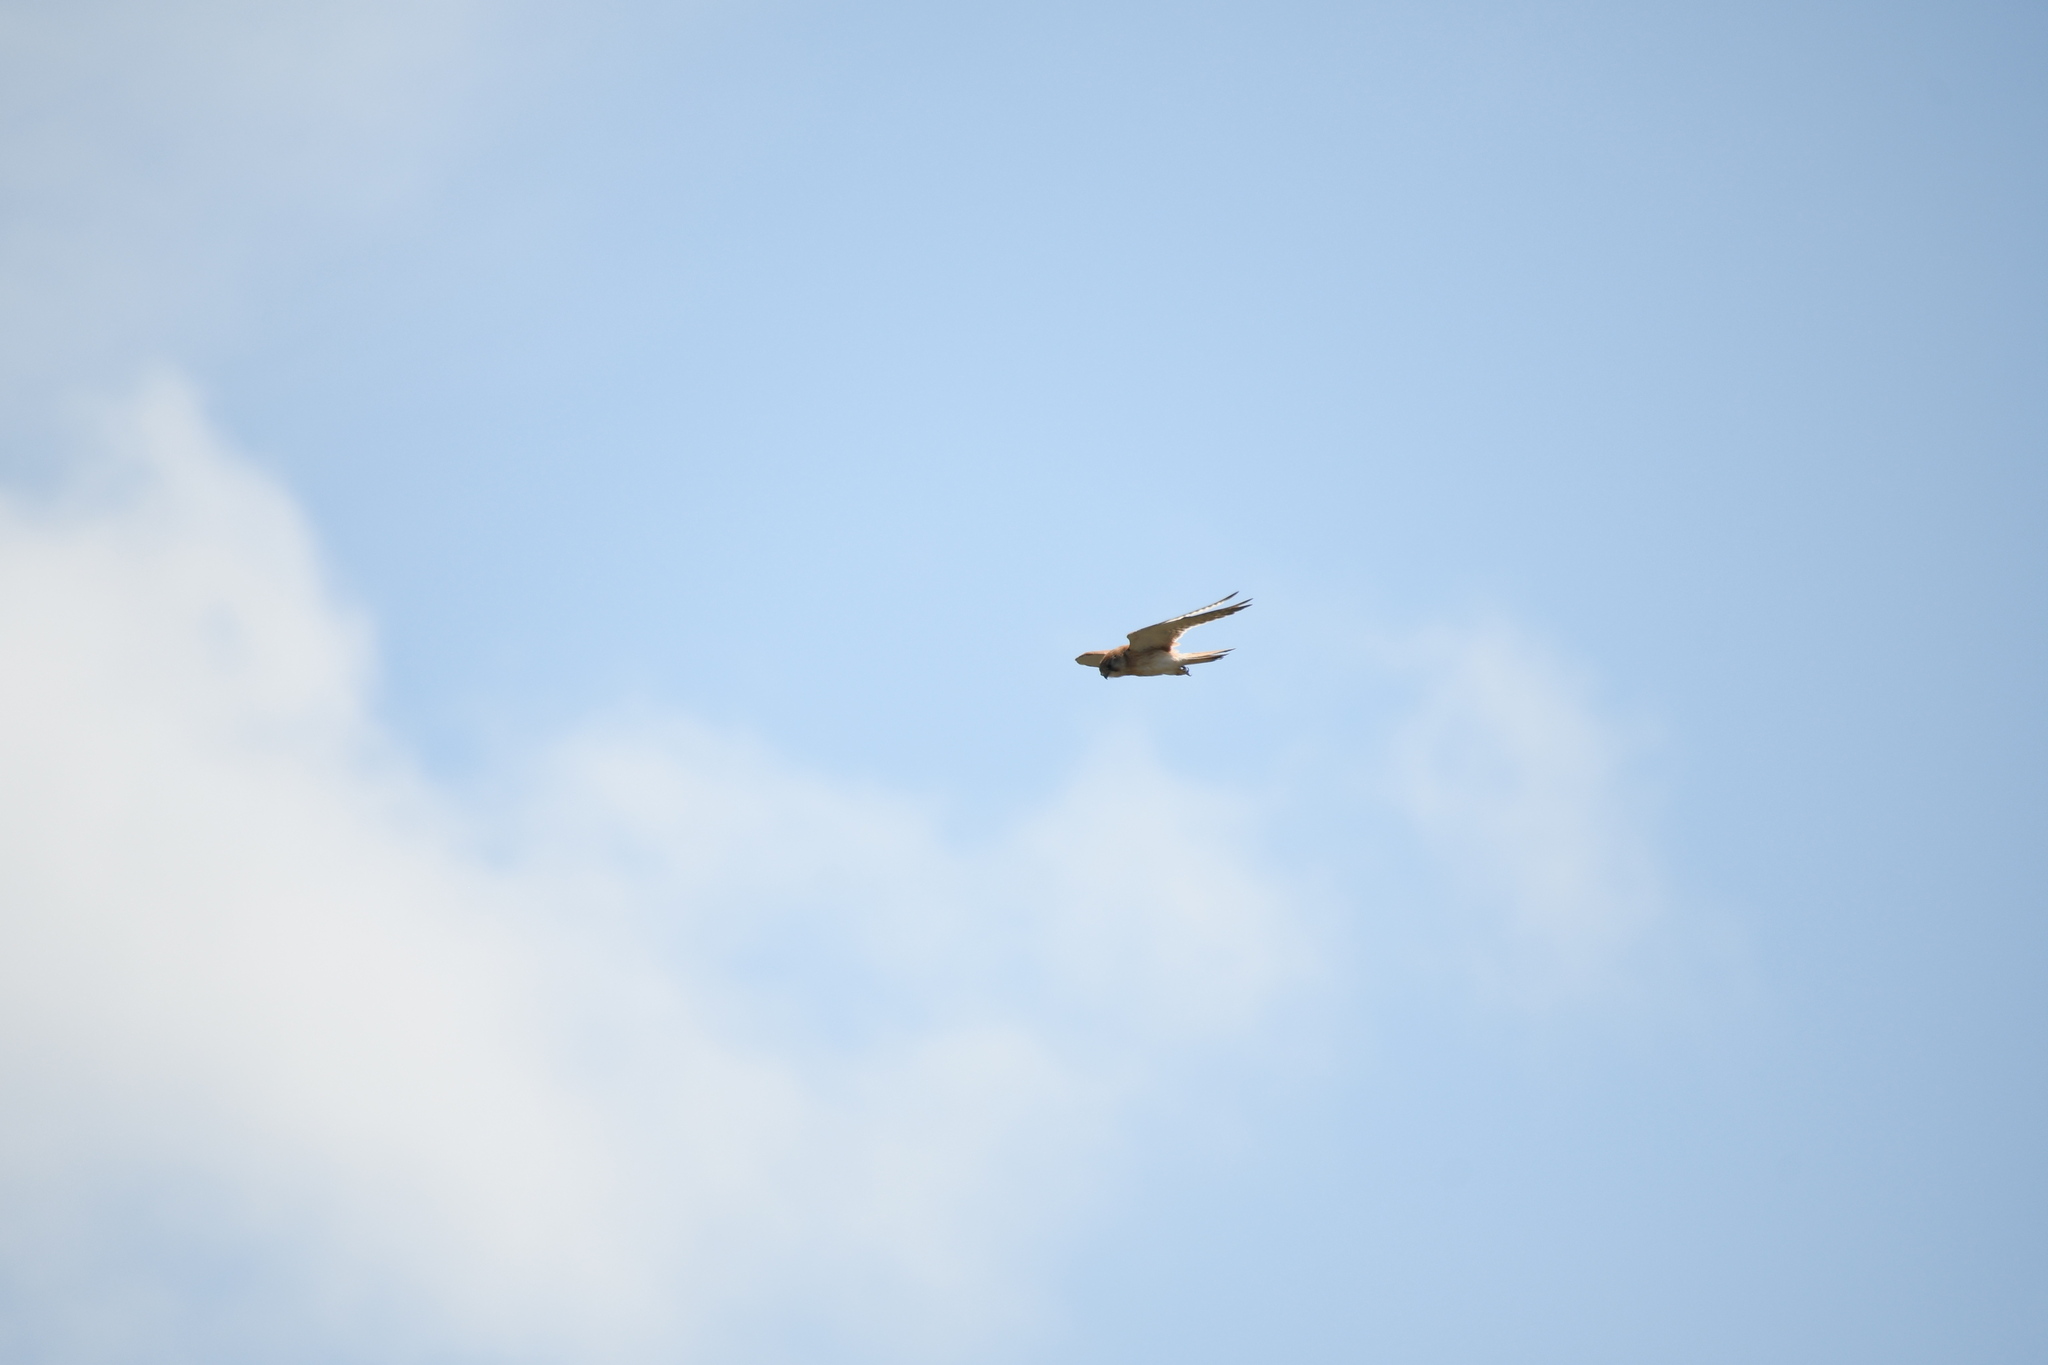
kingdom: Animalia
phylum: Chordata
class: Aves
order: Falconiformes
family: Falconidae
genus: Falco
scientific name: Falco cenchroides
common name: Nankeen kestrel
